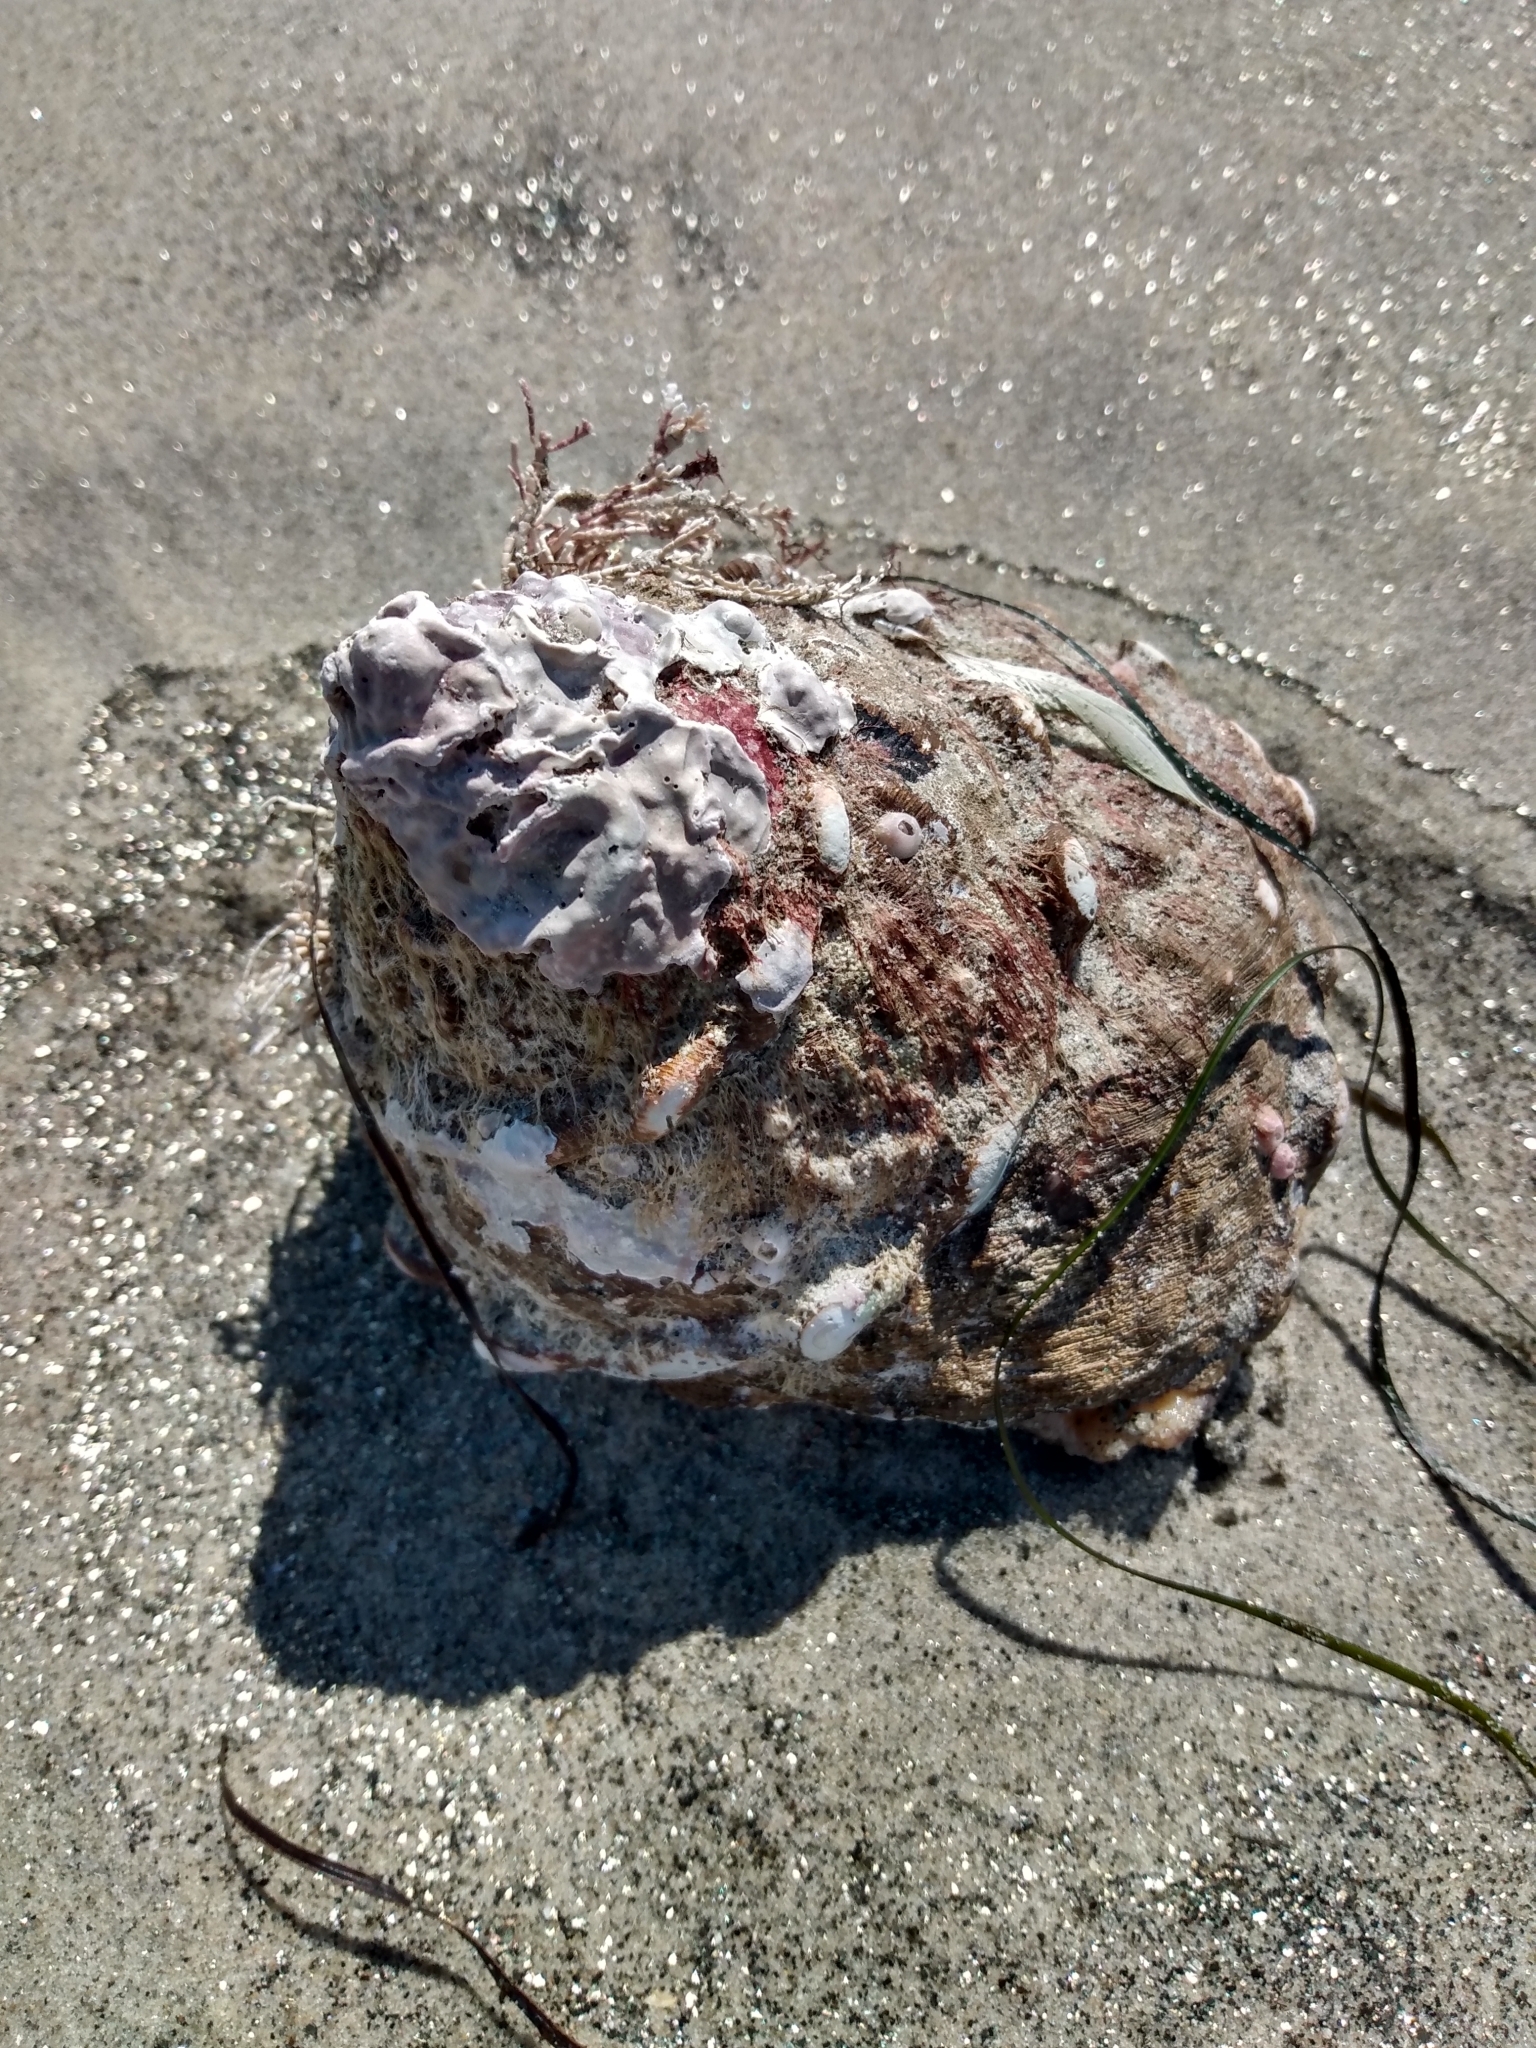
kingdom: Animalia
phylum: Mollusca
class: Gastropoda
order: Trochida
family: Turbinidae
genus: Megastraea
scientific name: Megastraea undosa
